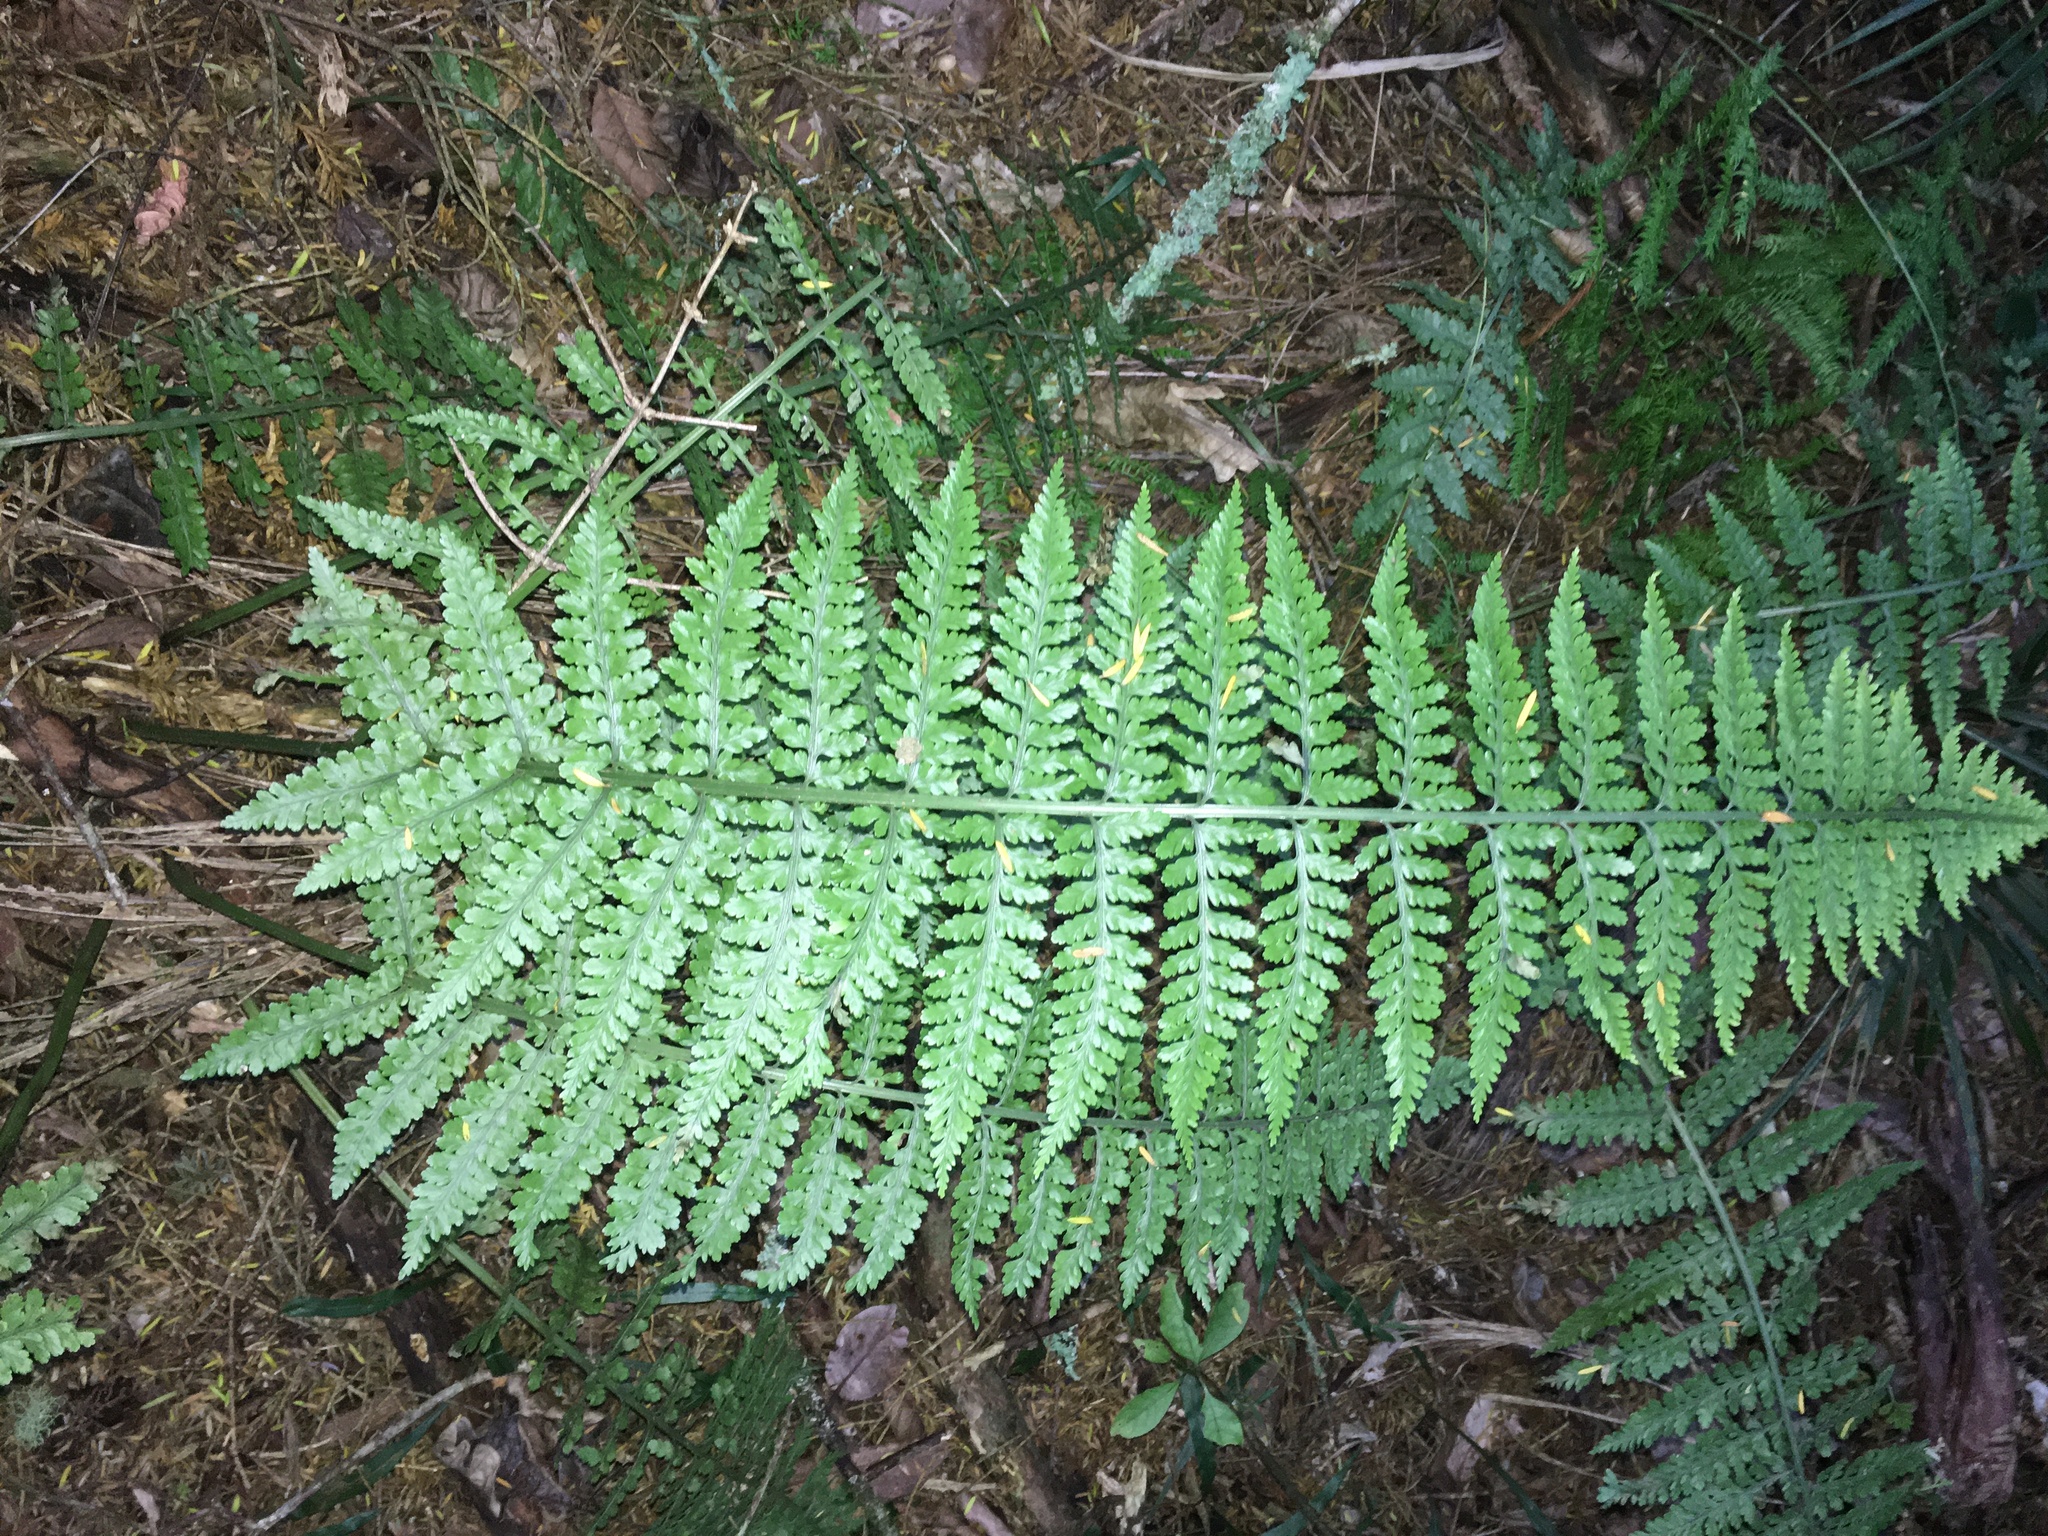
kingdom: Plantae
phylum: Tracheophyta
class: Polypodiopsida
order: Polypodiales
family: Aspleniaceae
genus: Asplenium
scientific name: Asplenium bulbiferum
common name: Mother fern
